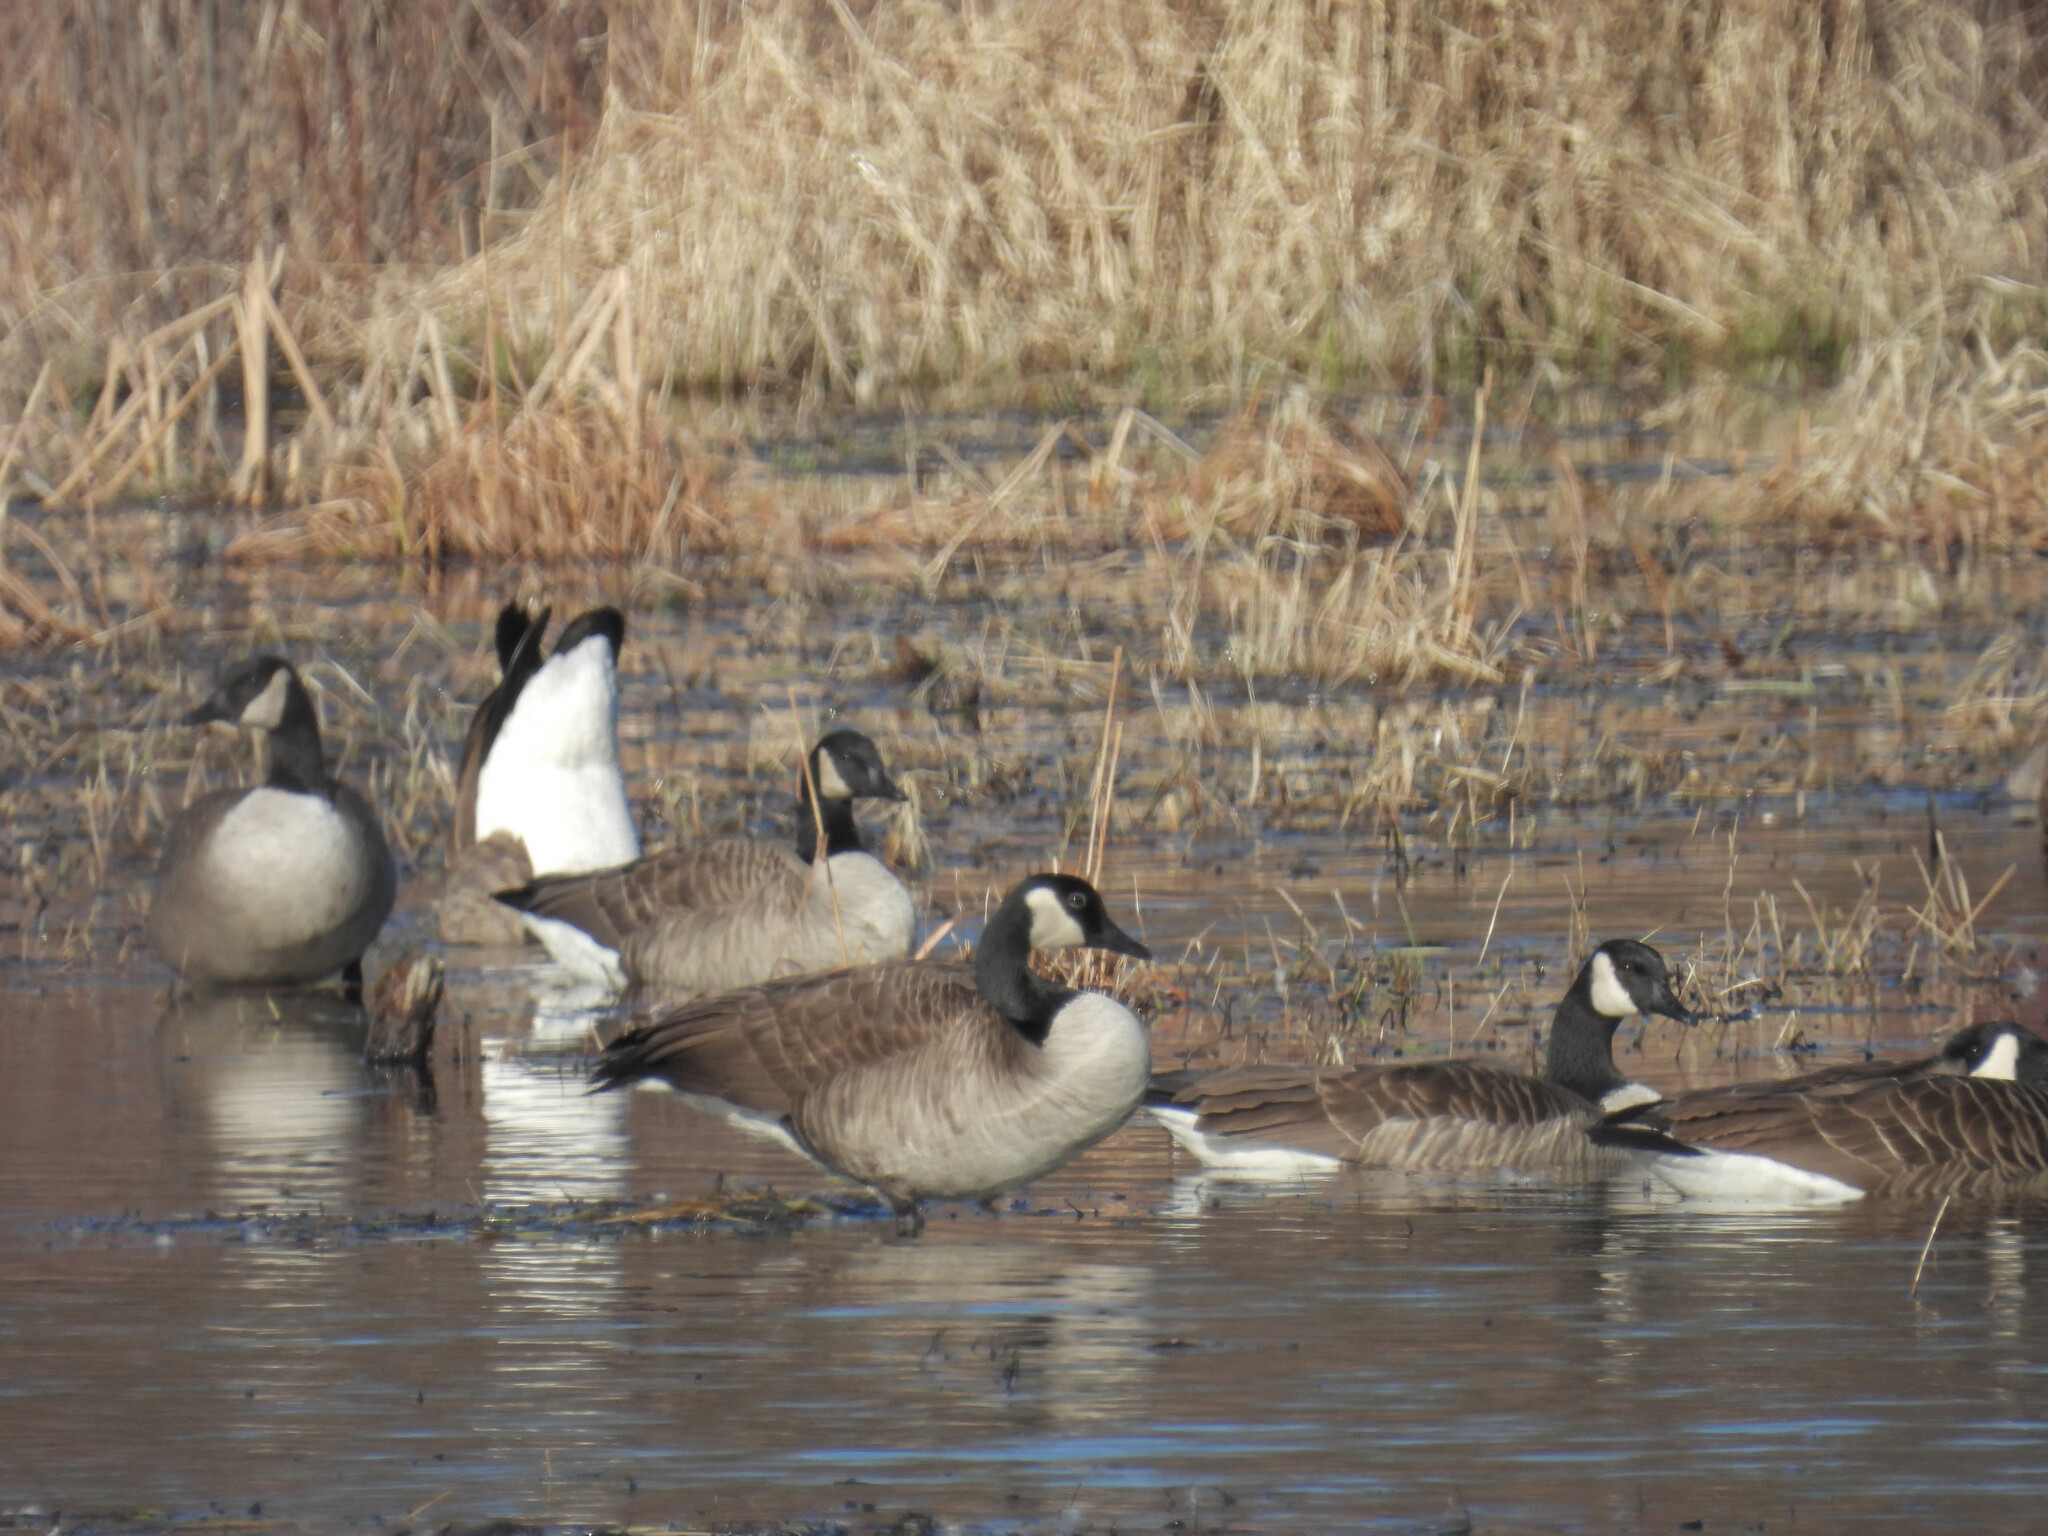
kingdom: Animalia
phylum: Chordata
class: Aves
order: Anseriformes
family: Anatidae
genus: Branta
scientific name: Branta canadensis
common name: Canada goose
